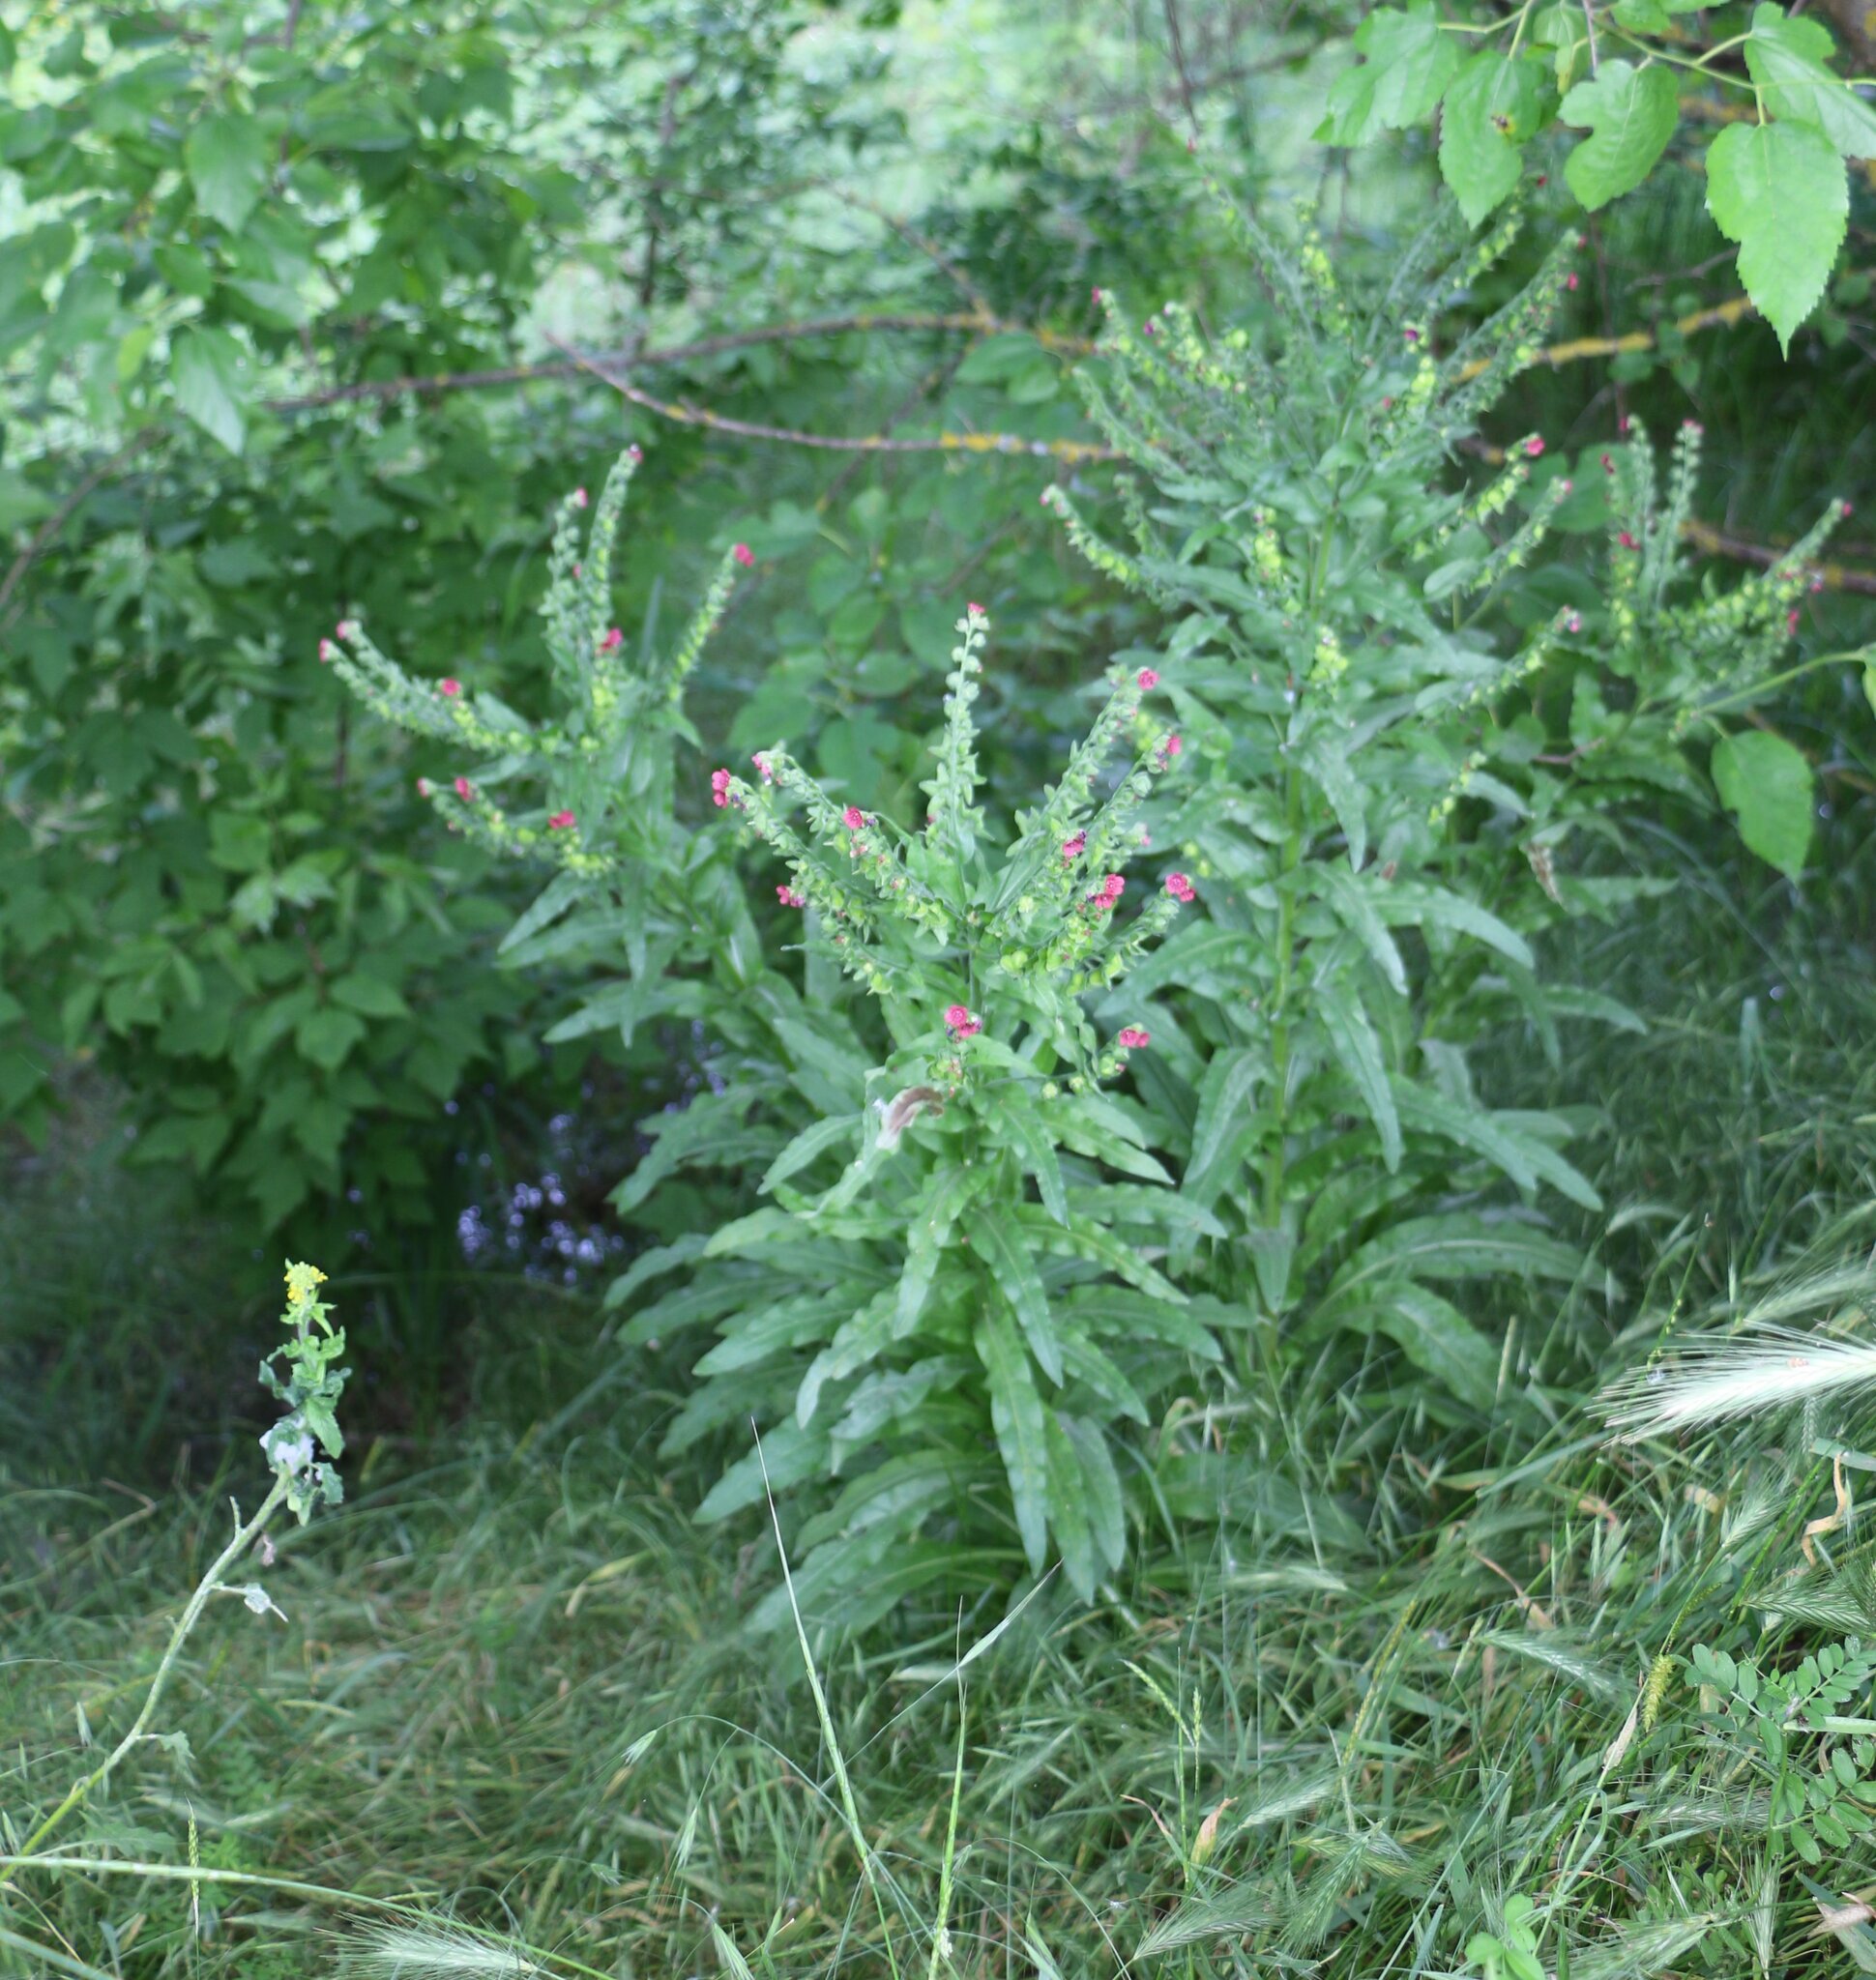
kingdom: Plantae
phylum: Tracheophyta
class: Magnoliopsida
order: Boraginales
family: Boraginaceae
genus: Cynoglossum
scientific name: Cynoglossum officinale
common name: Hound's-tongue
